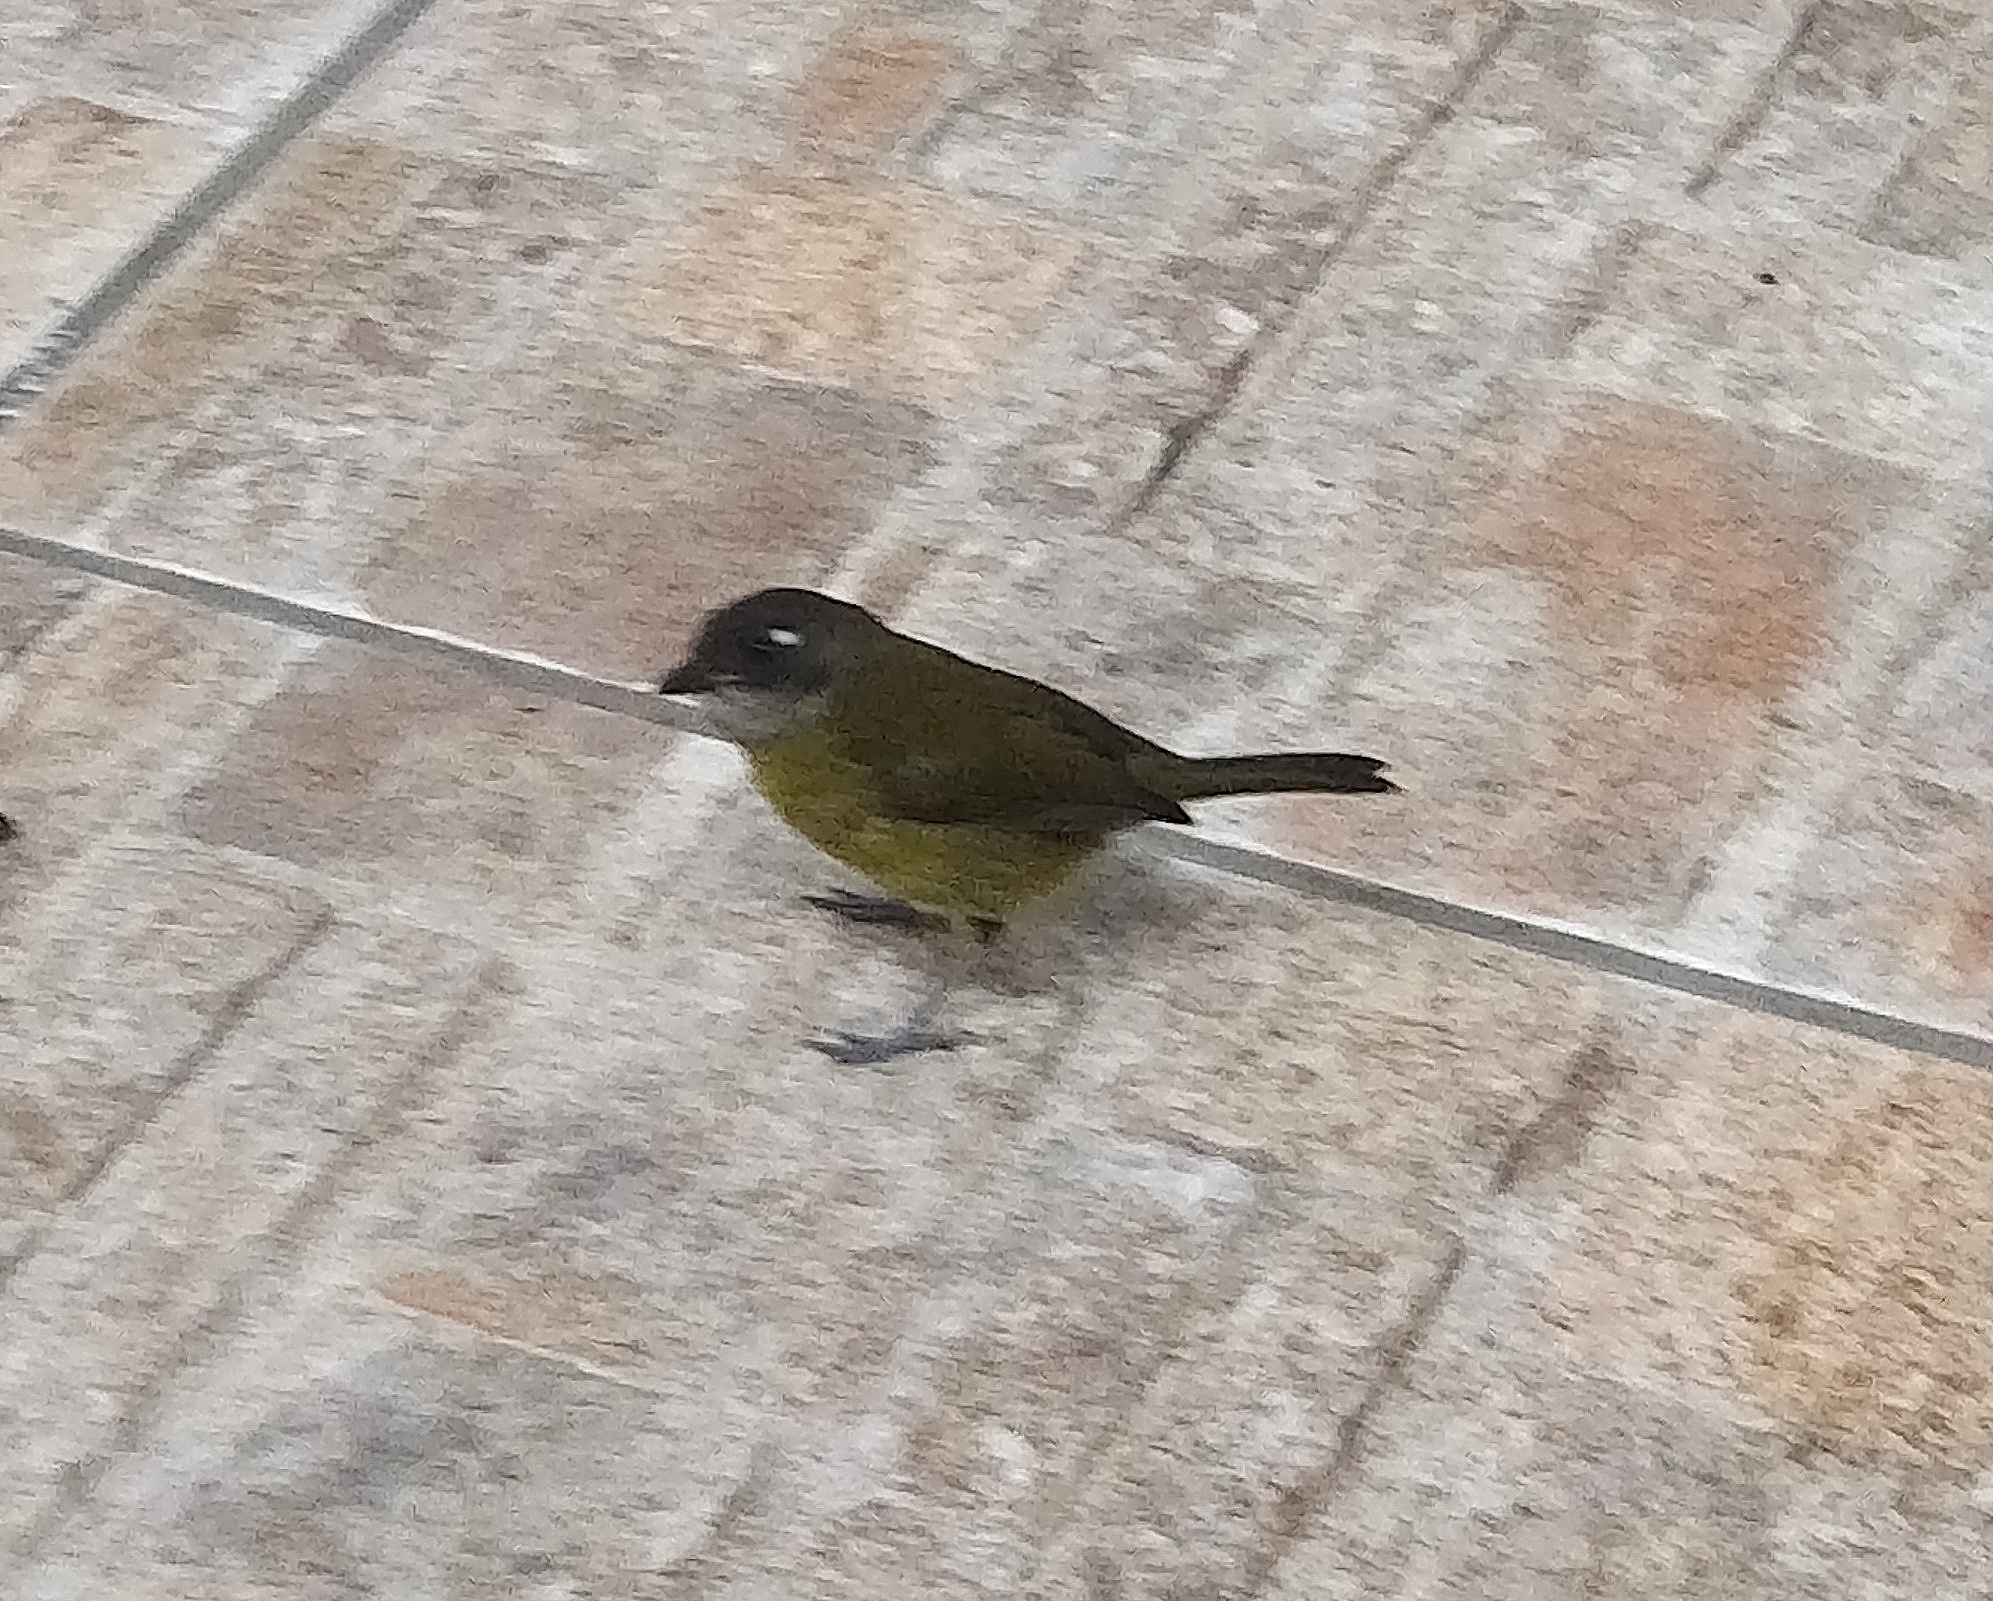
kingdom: Animalia
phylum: Chordata
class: Aves
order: Passeriformes
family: Passerellidae
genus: Chlorospingus
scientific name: Chlorospingus flavopectus
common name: Common chlorospingus
